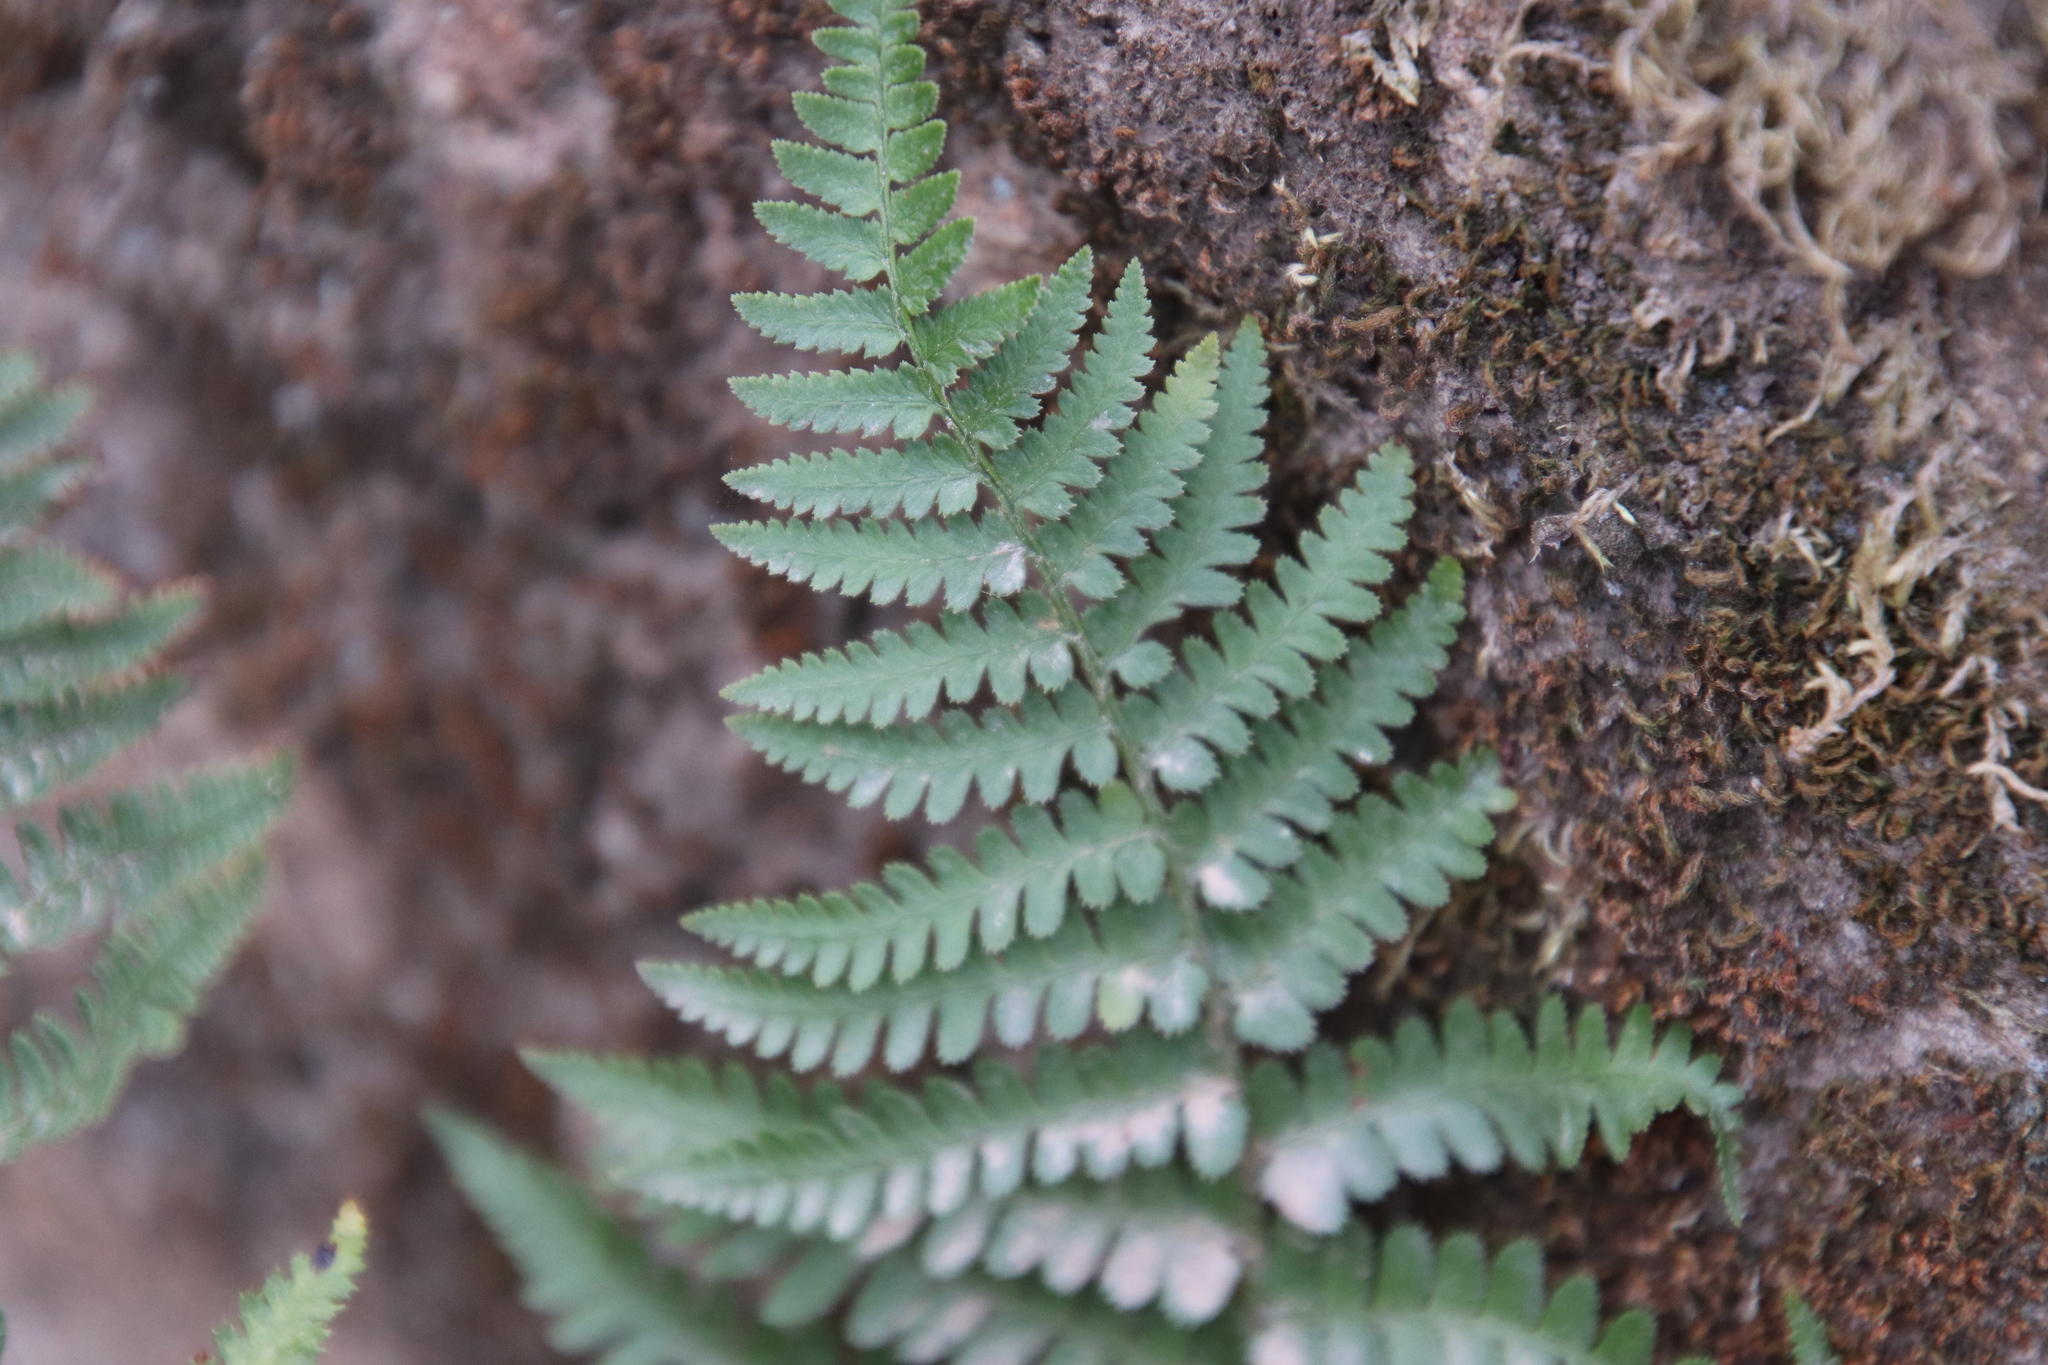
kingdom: Plantae
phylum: Tracheophyta
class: Polypodiopsida
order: Polypodiales
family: Dryopteridaceae
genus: Dryopteris
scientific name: Dryopteris arguta
